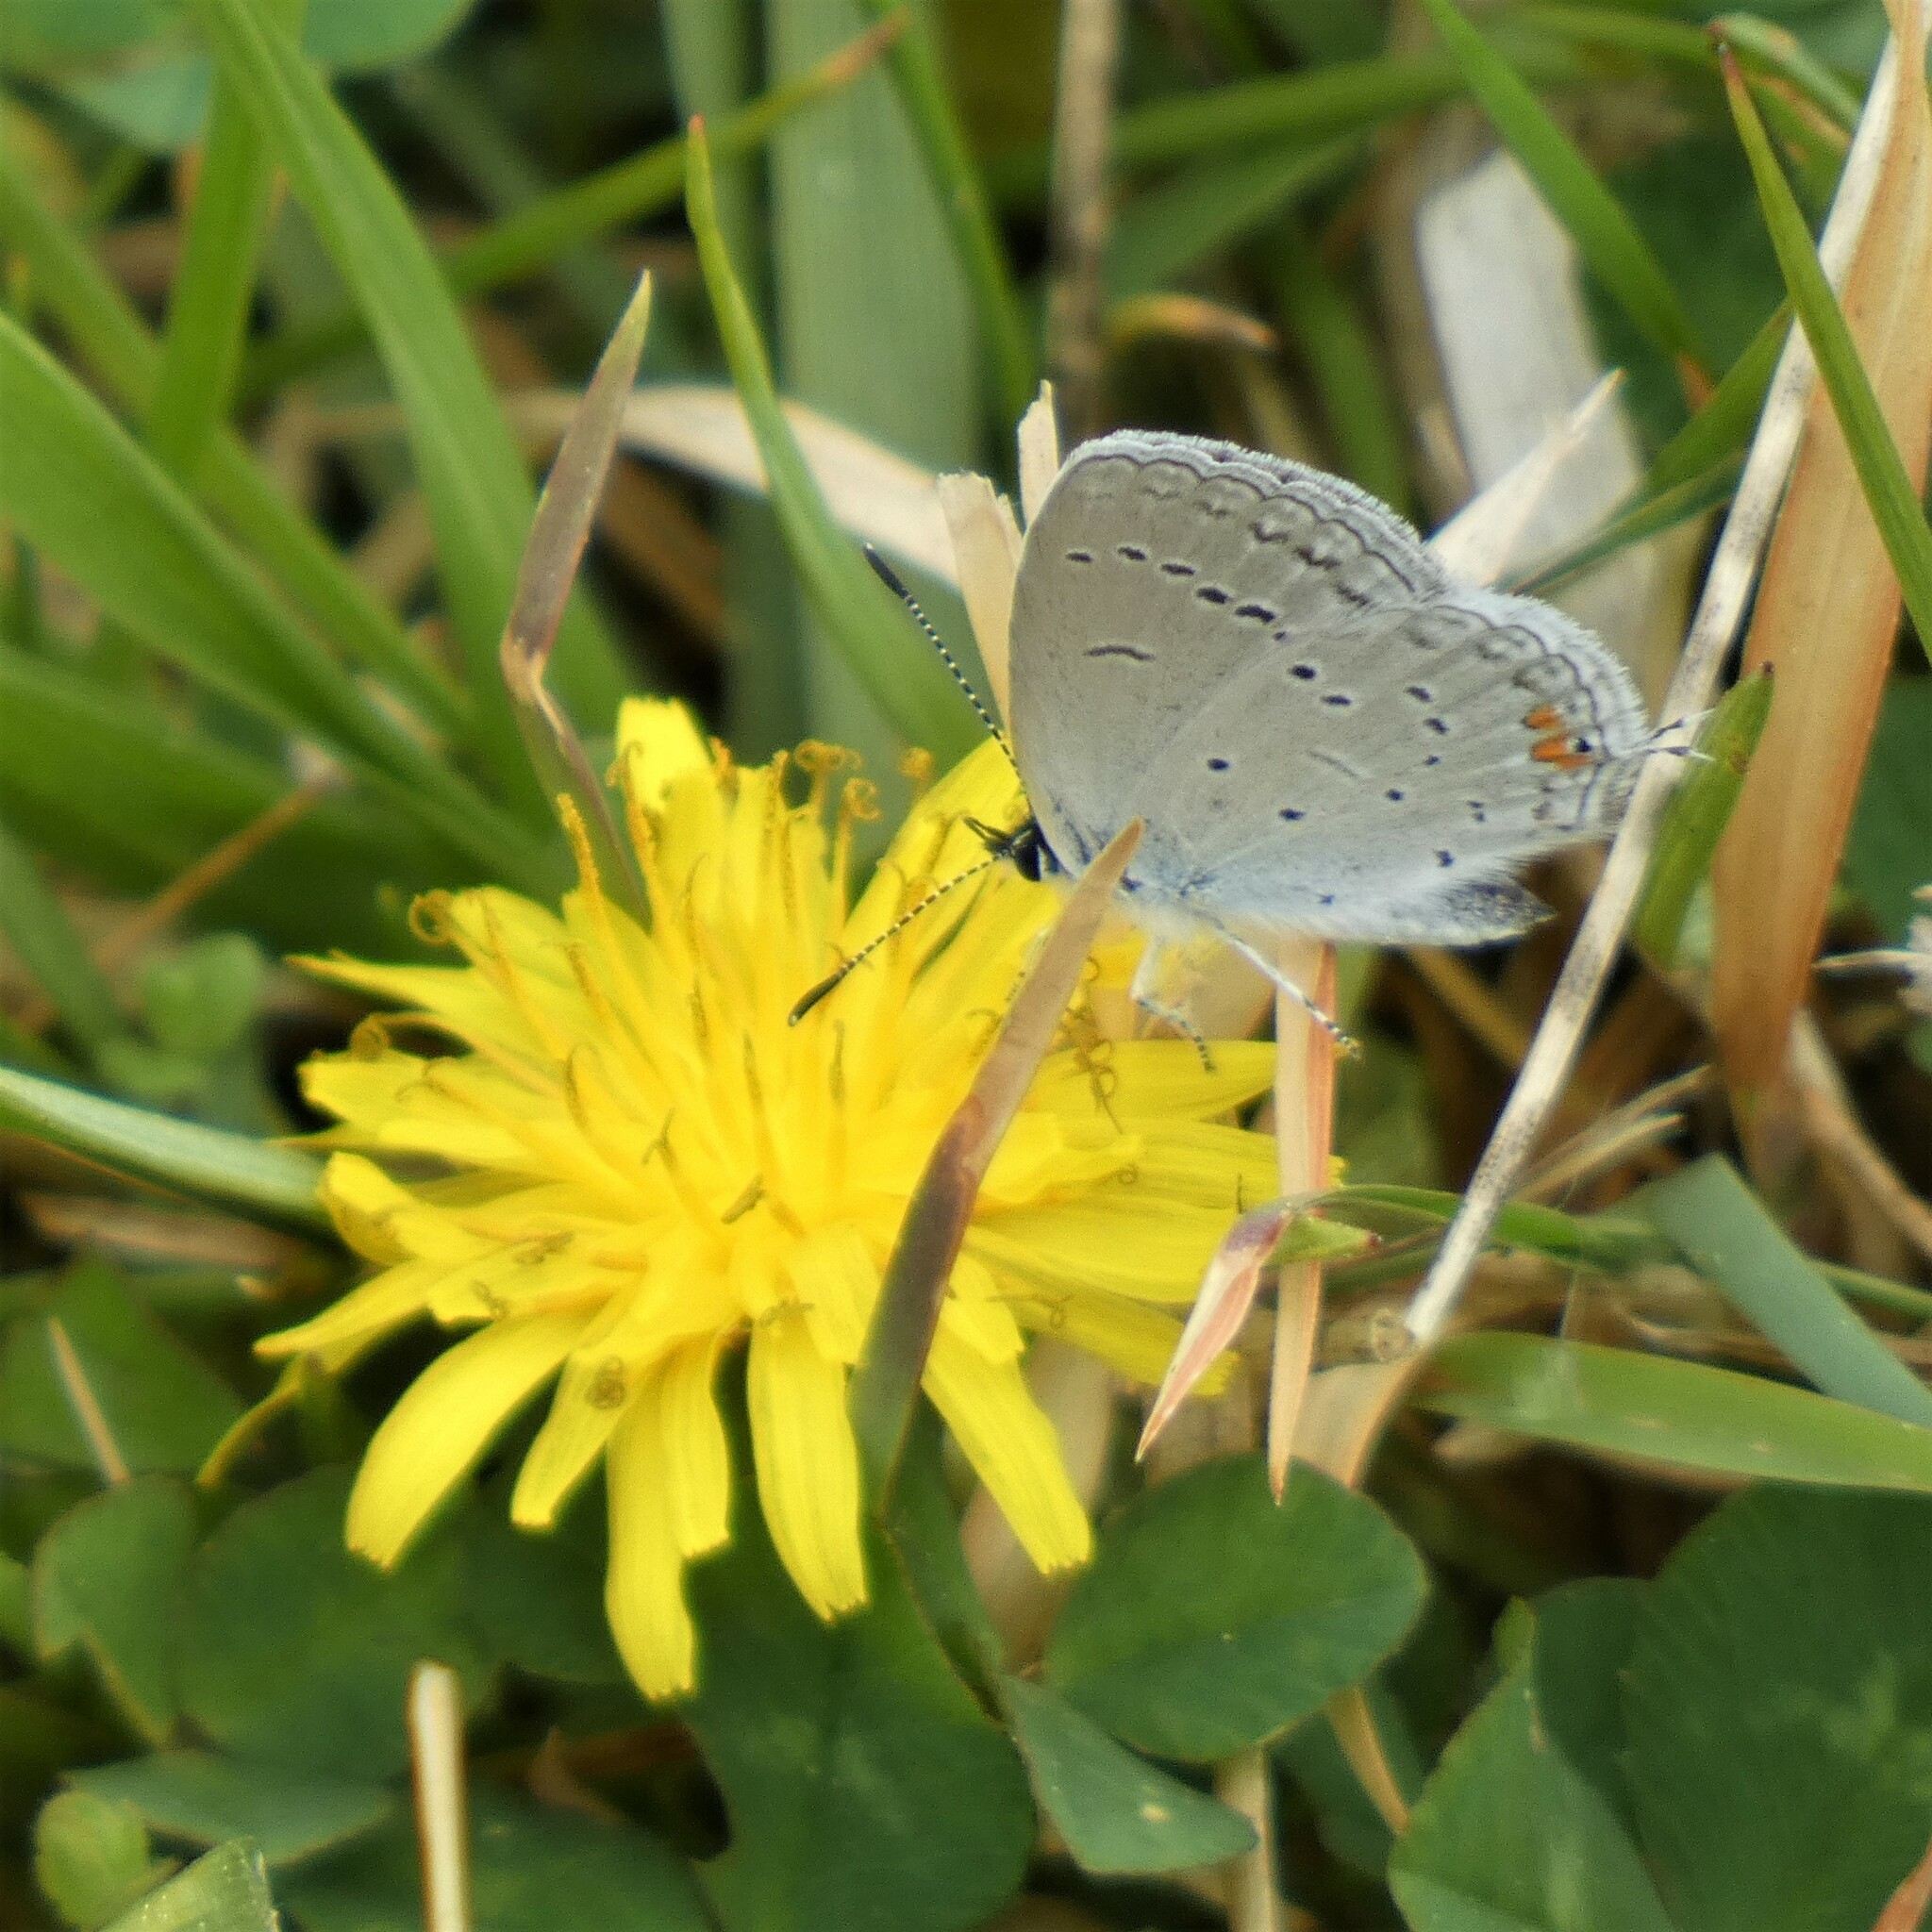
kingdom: Animalia
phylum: Arthropoda
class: Insecta
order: Lepidoptera
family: Lycaenidae
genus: Elkalyce
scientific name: Elkalyce comyntas
